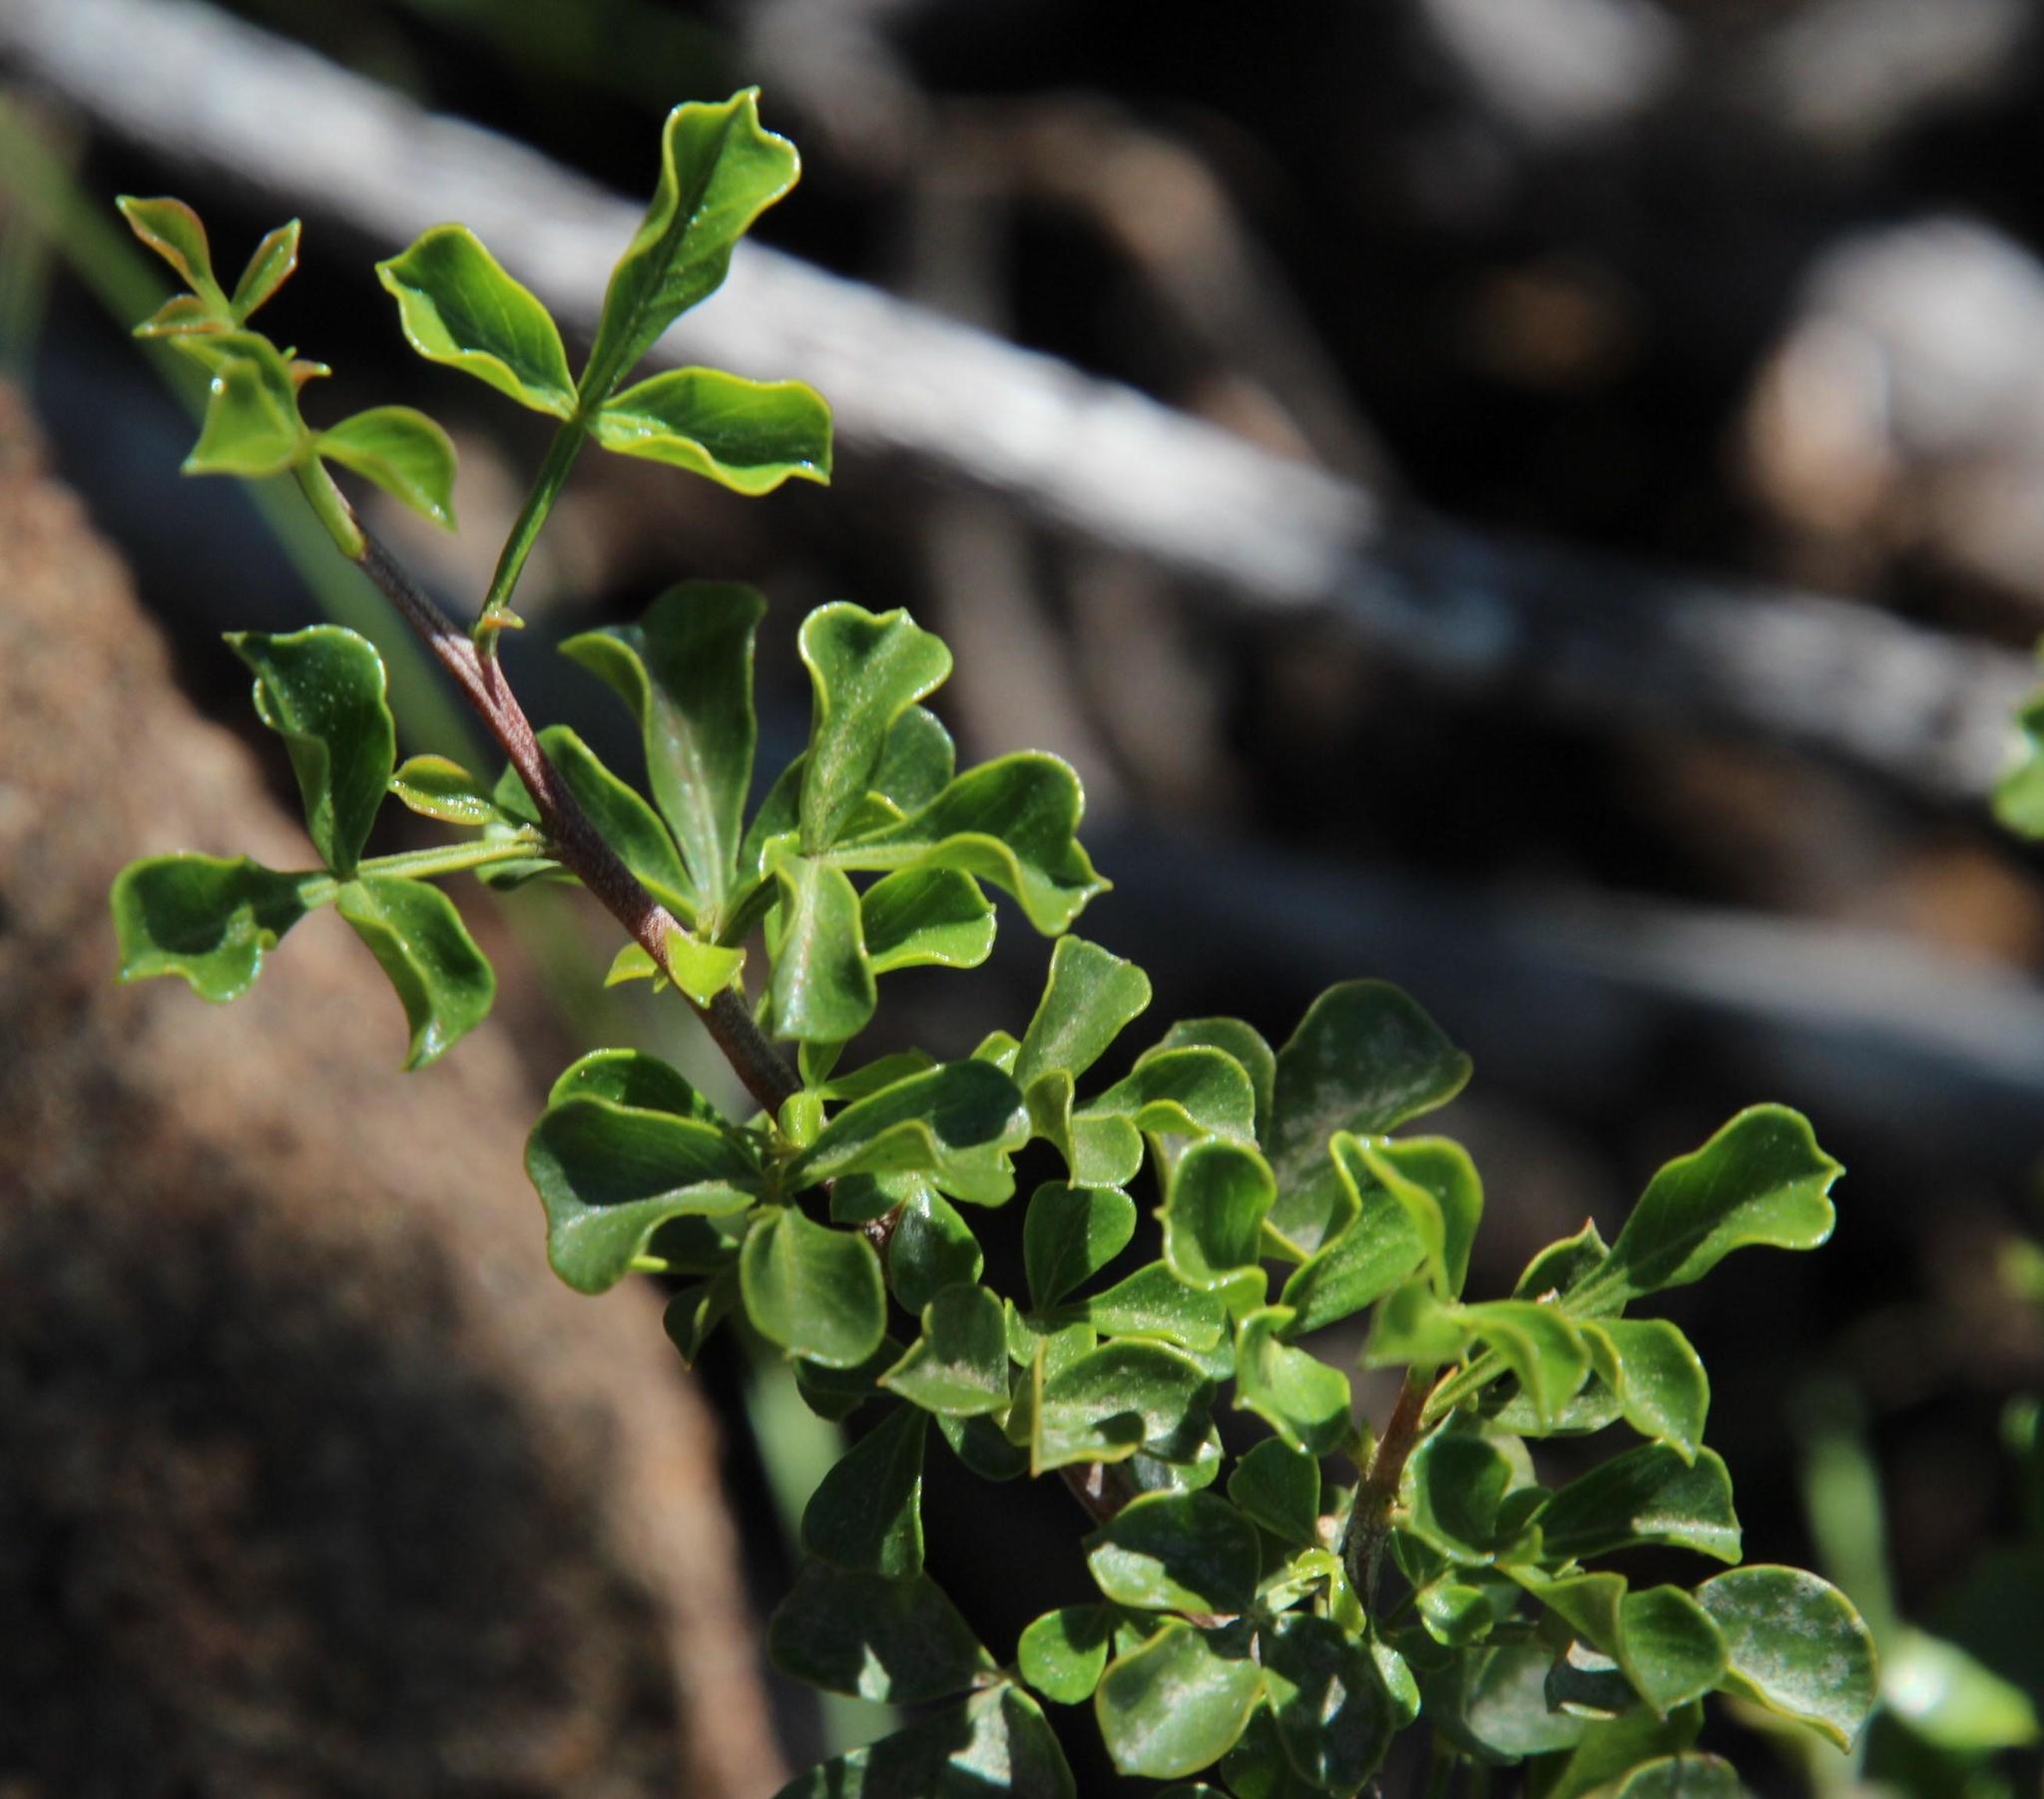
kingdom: Plantae
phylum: Tracheophyta
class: Magnoliopsida
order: Sapindales
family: Anacardiaceae
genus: Searsia
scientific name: Searsia burchellii
